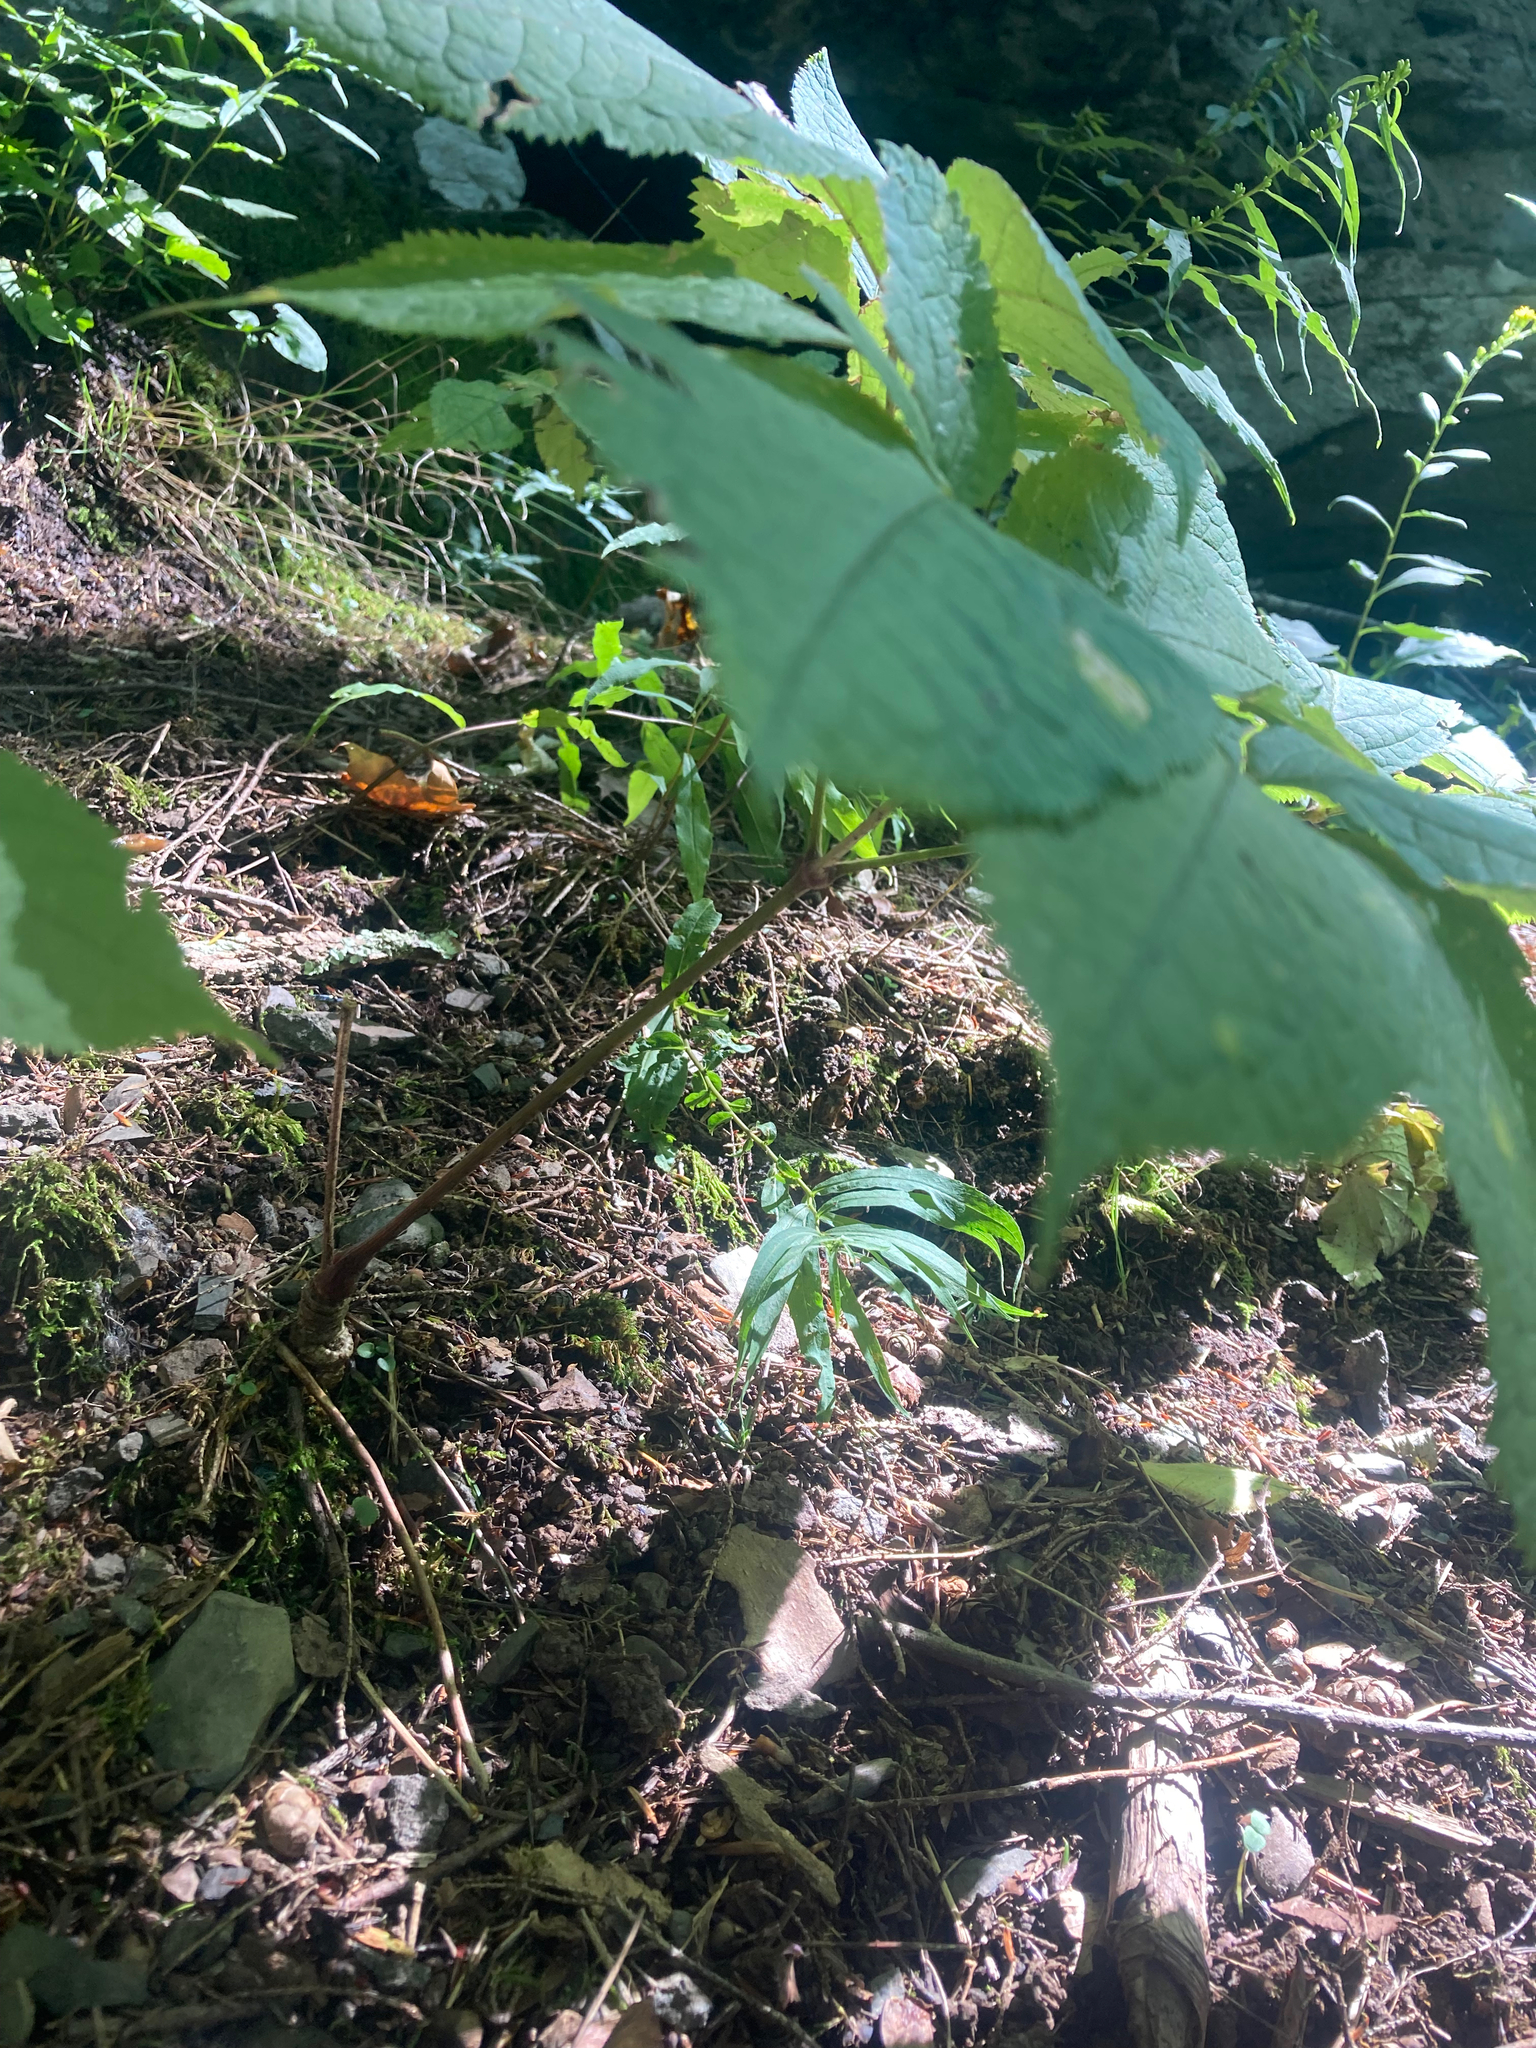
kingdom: Plantae
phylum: Tracheophyta
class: Magnoliopsida
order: Apiales
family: Araliaceae
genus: Aralia
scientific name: Aralia nudicaulis
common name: Wild sarsaparilla
